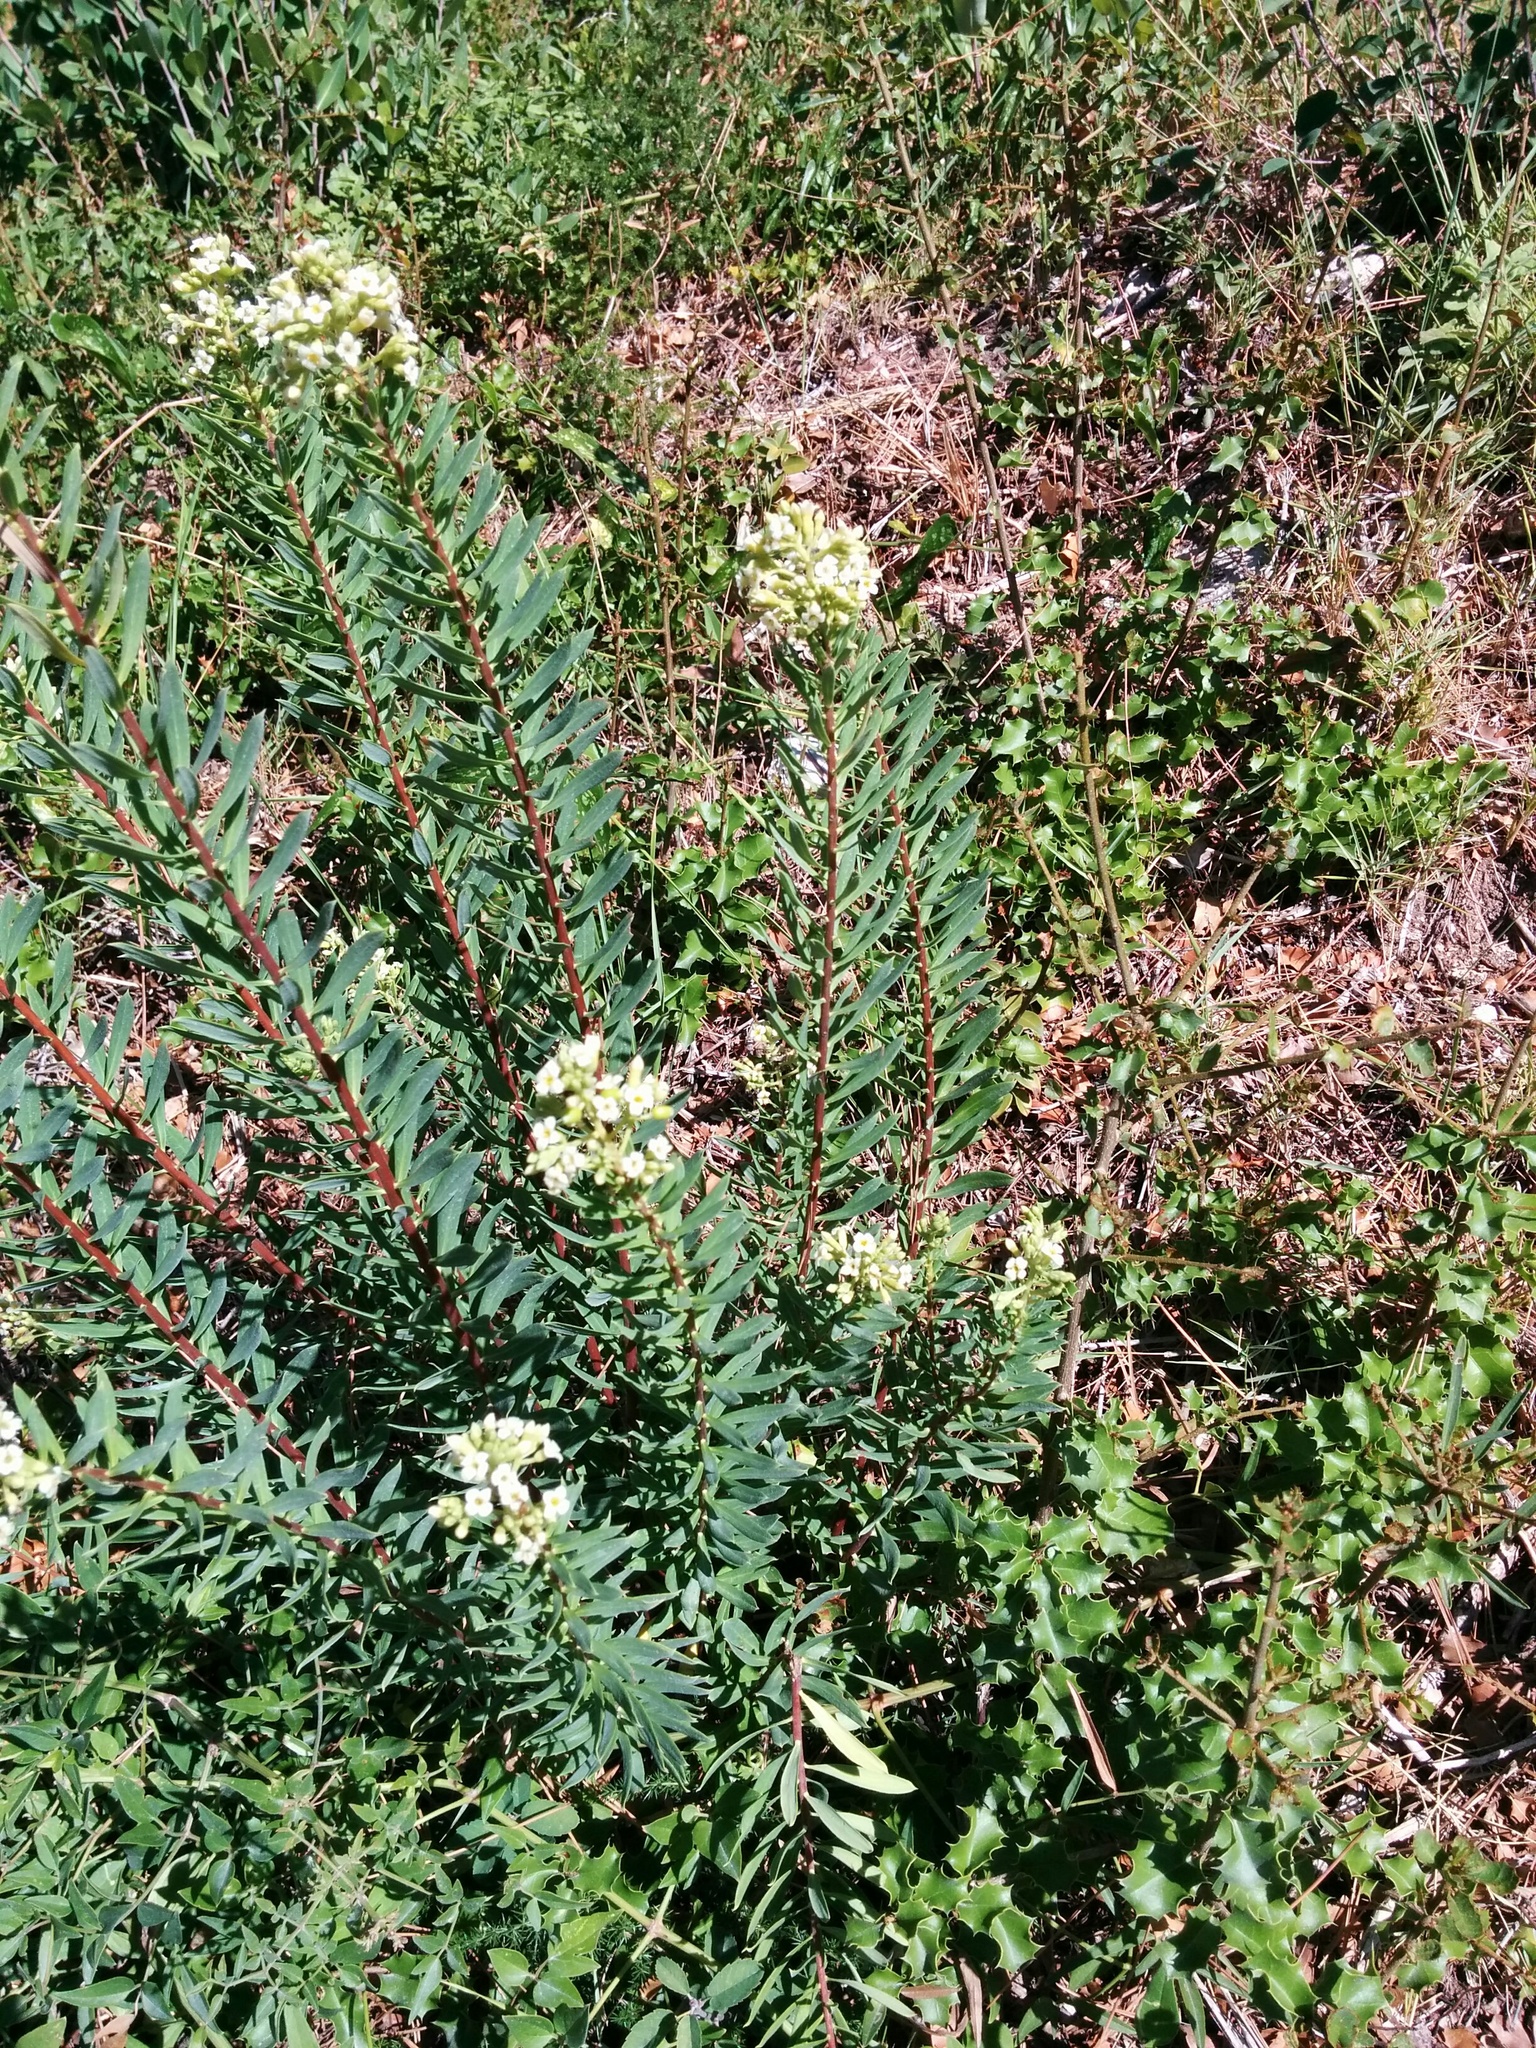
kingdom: Plantae
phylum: Tracheophyta
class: Magnoliopsida
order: Malvales
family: Thymelaeaceae
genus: Daphne
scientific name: Daphne gnidium
